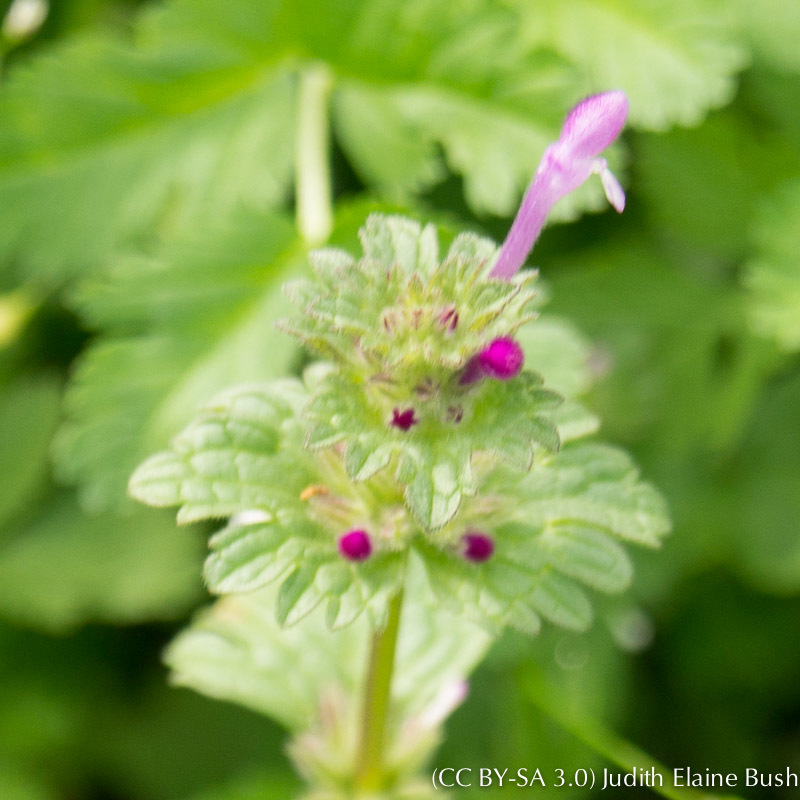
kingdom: Plantae
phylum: Tracheophyta
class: Magnoliopsida
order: Lamiales
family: Lamiaceae
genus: Lamium
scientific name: Lamium amplexicaule
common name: Henbit dead-nettle
